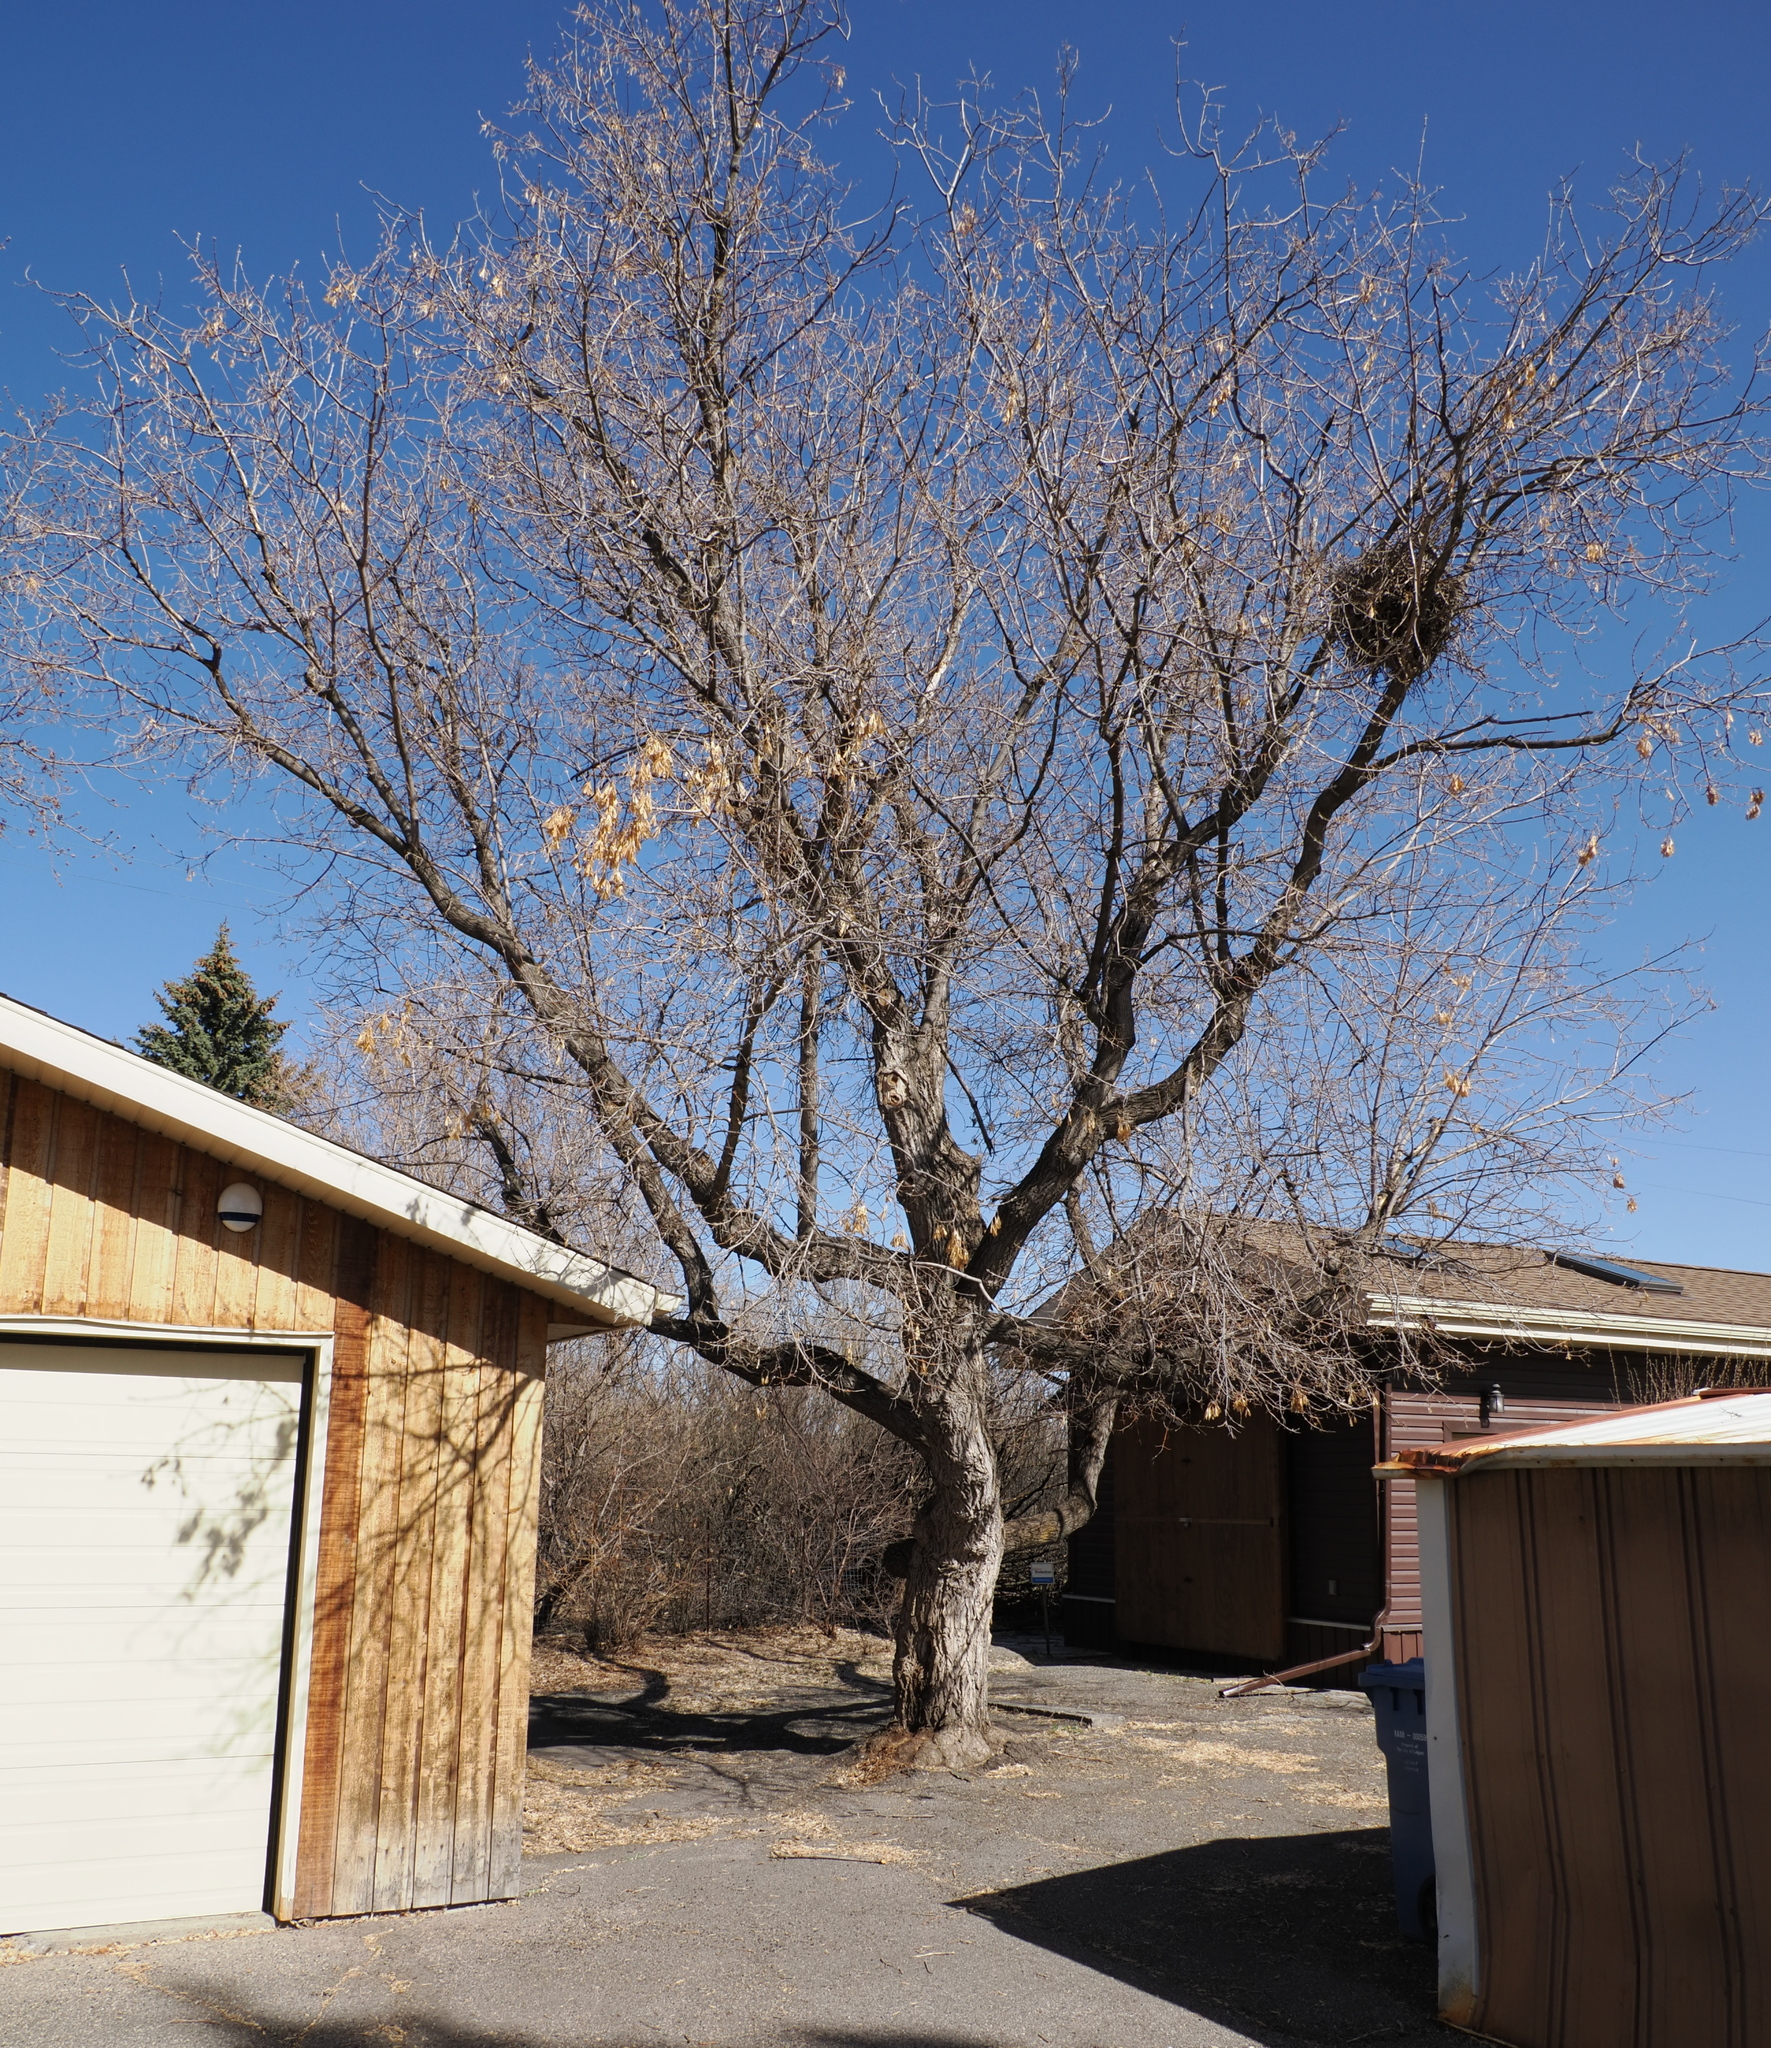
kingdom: Plantae
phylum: Tracheophyta
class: Magnoliopsida
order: Sapindales
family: Sapindaceae
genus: Acer
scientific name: Acer negundo
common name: Ashleaf maple
